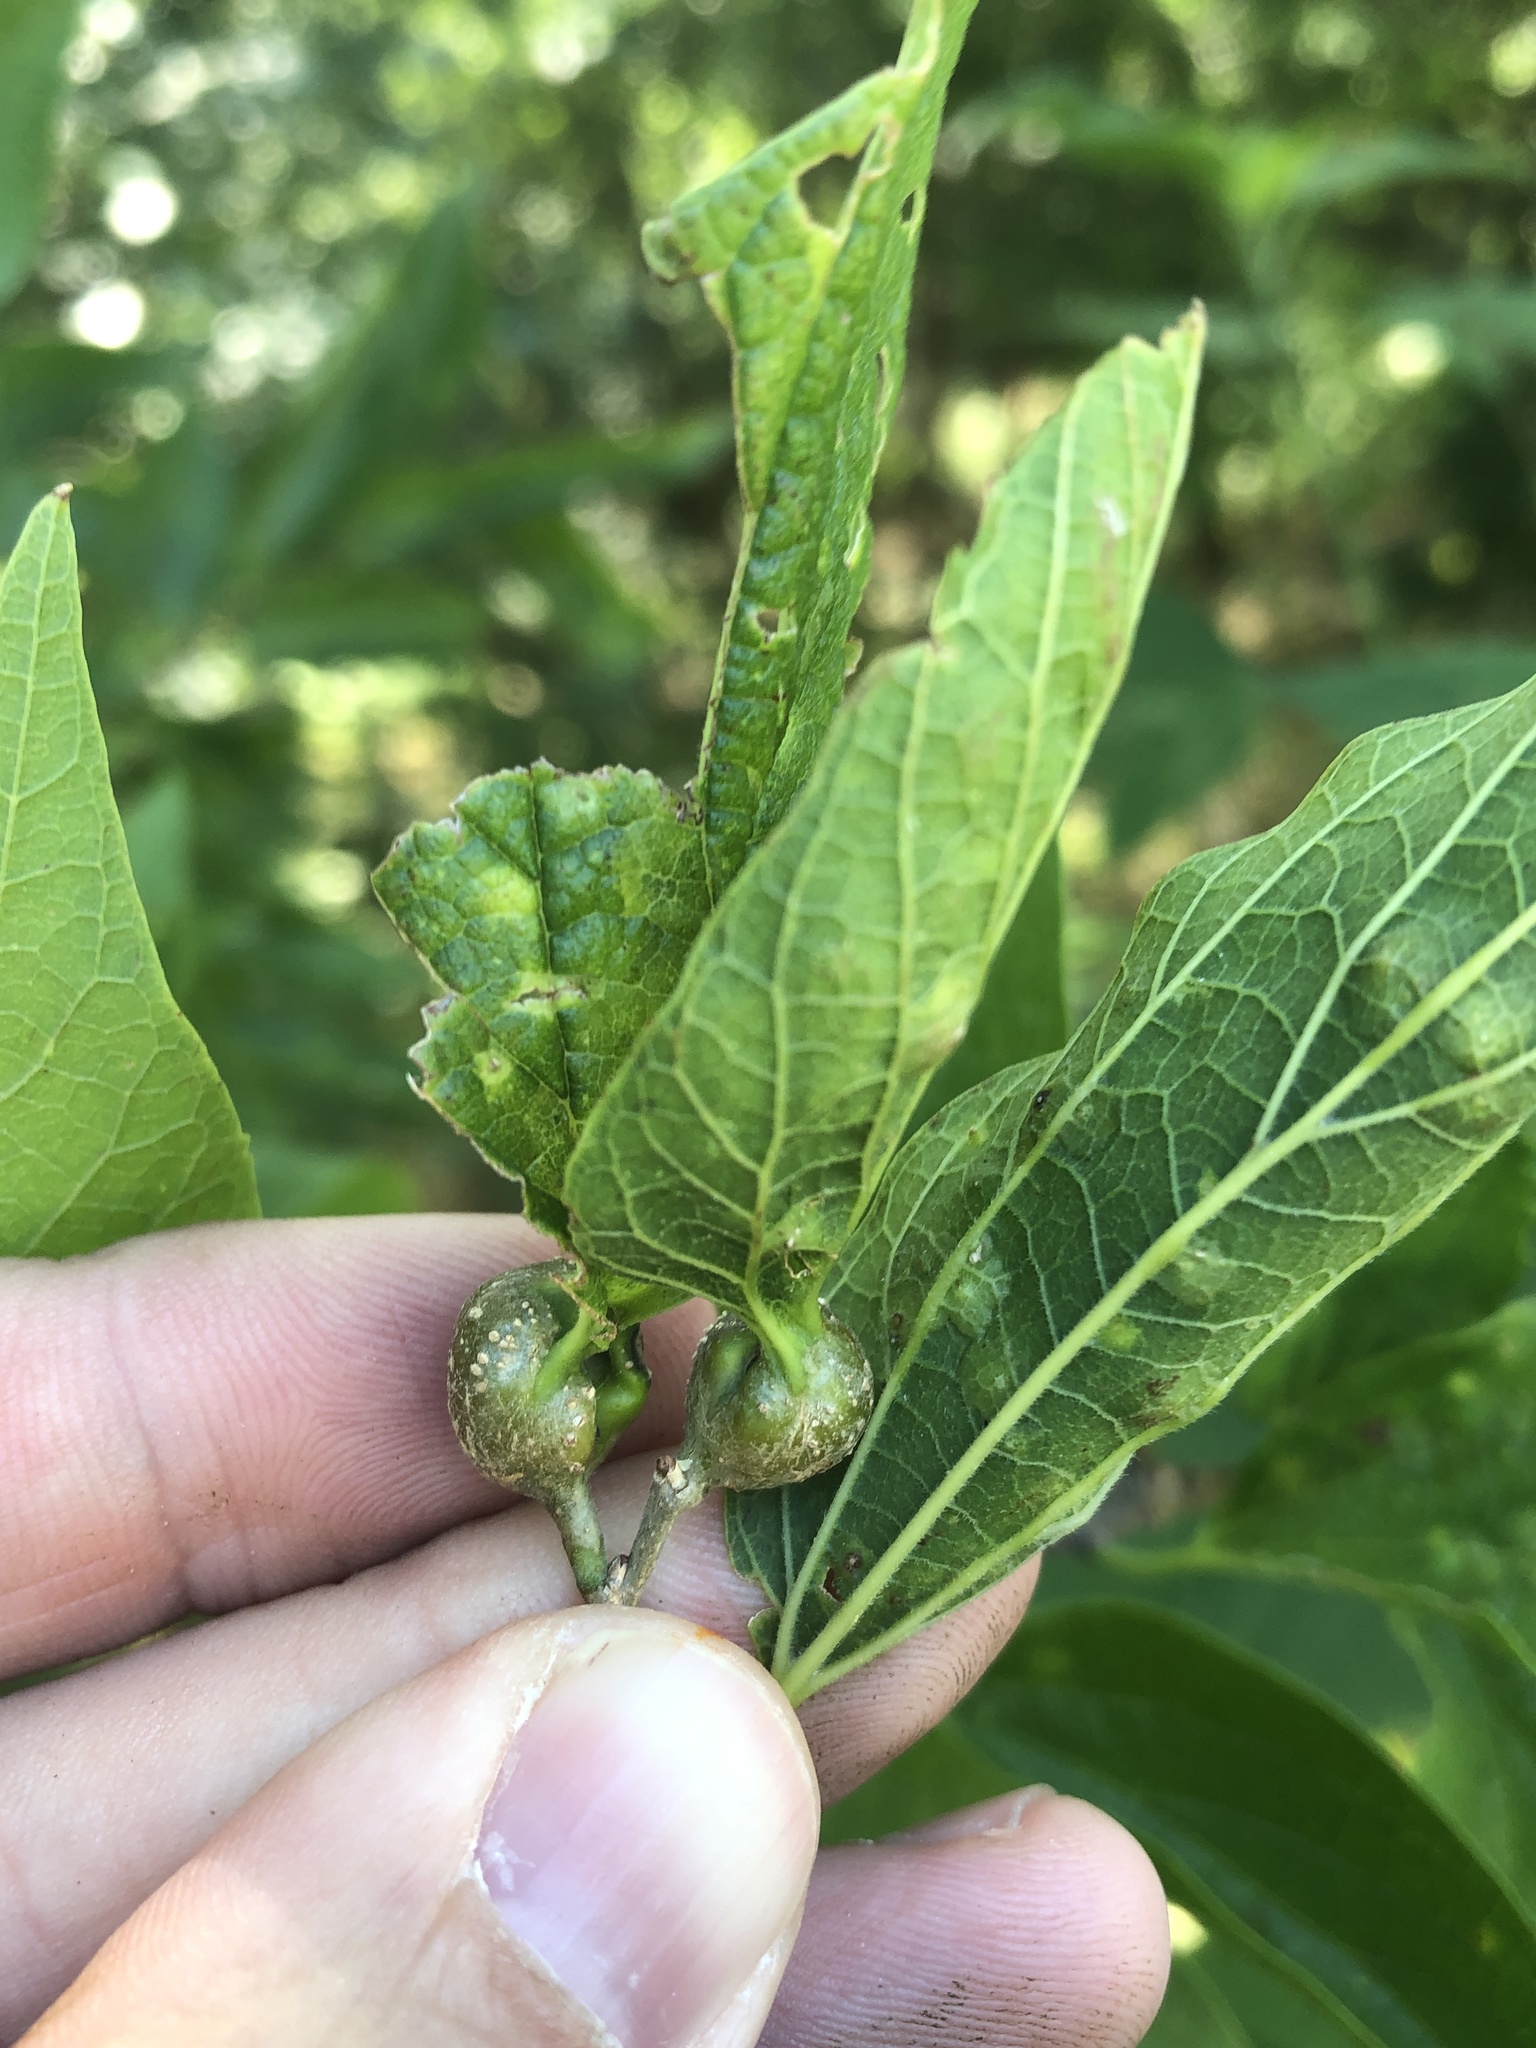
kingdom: Animalia
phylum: Arthropoda
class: Insecta
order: Hemiptera
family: Aphalaridae
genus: Pachypsylla
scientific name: Pachypsylla venusta
